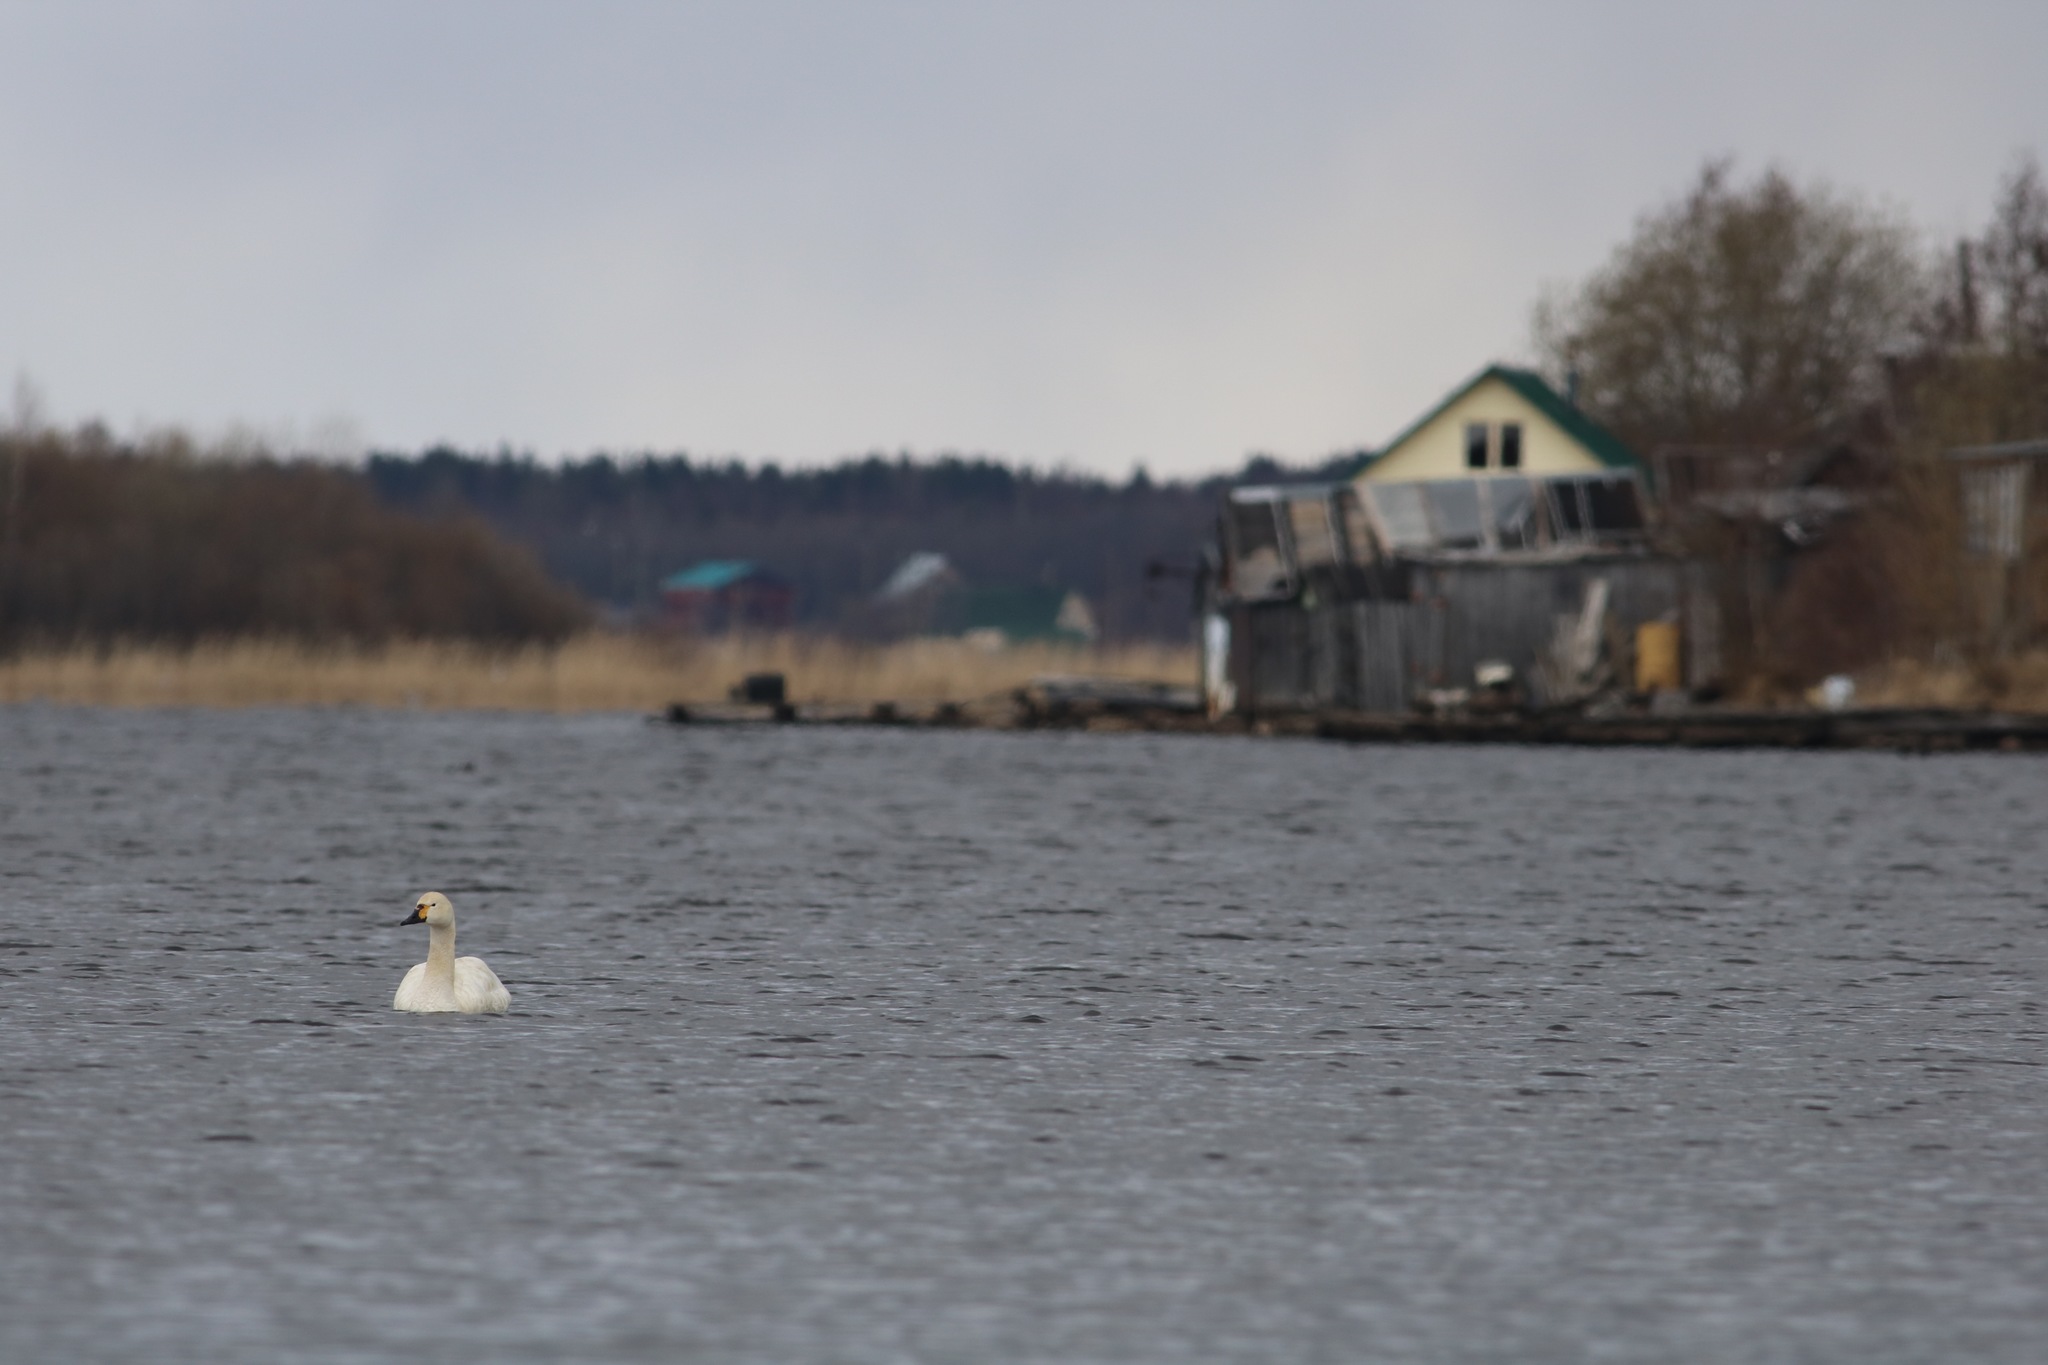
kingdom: Animalia
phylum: Chordata
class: Aves
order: Anseriformes
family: Anatidae
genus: Cygnus
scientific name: Cygnus columbianus
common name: Tundra swan
